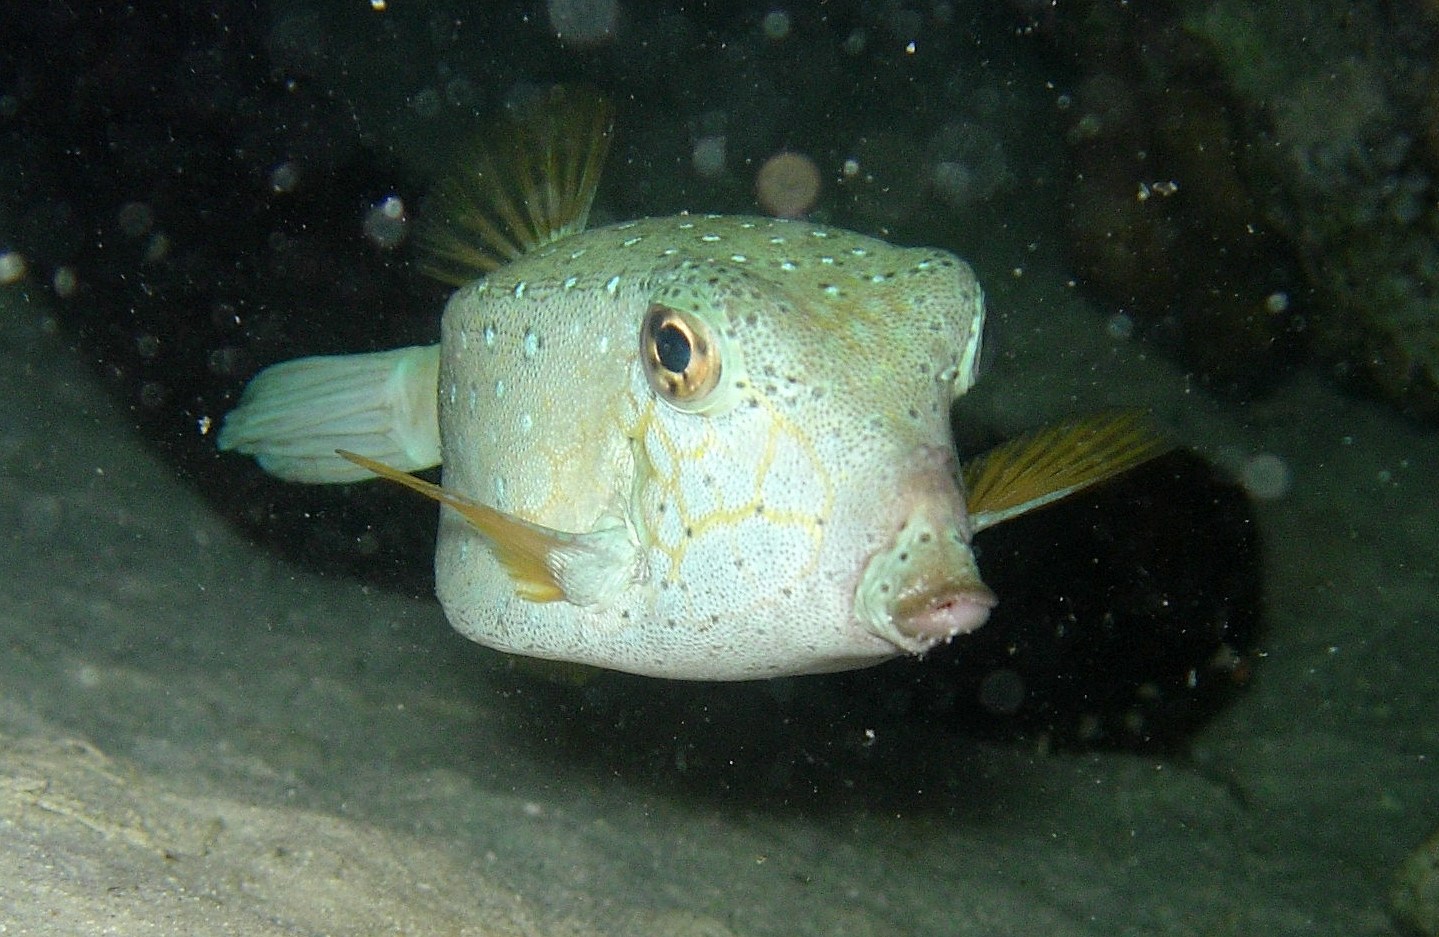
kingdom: Animalia
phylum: Chordata
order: Tetraodontiformes
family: Ostraciidae
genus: Ostracion
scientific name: Ostracion cubicus
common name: Cube trunkfish
